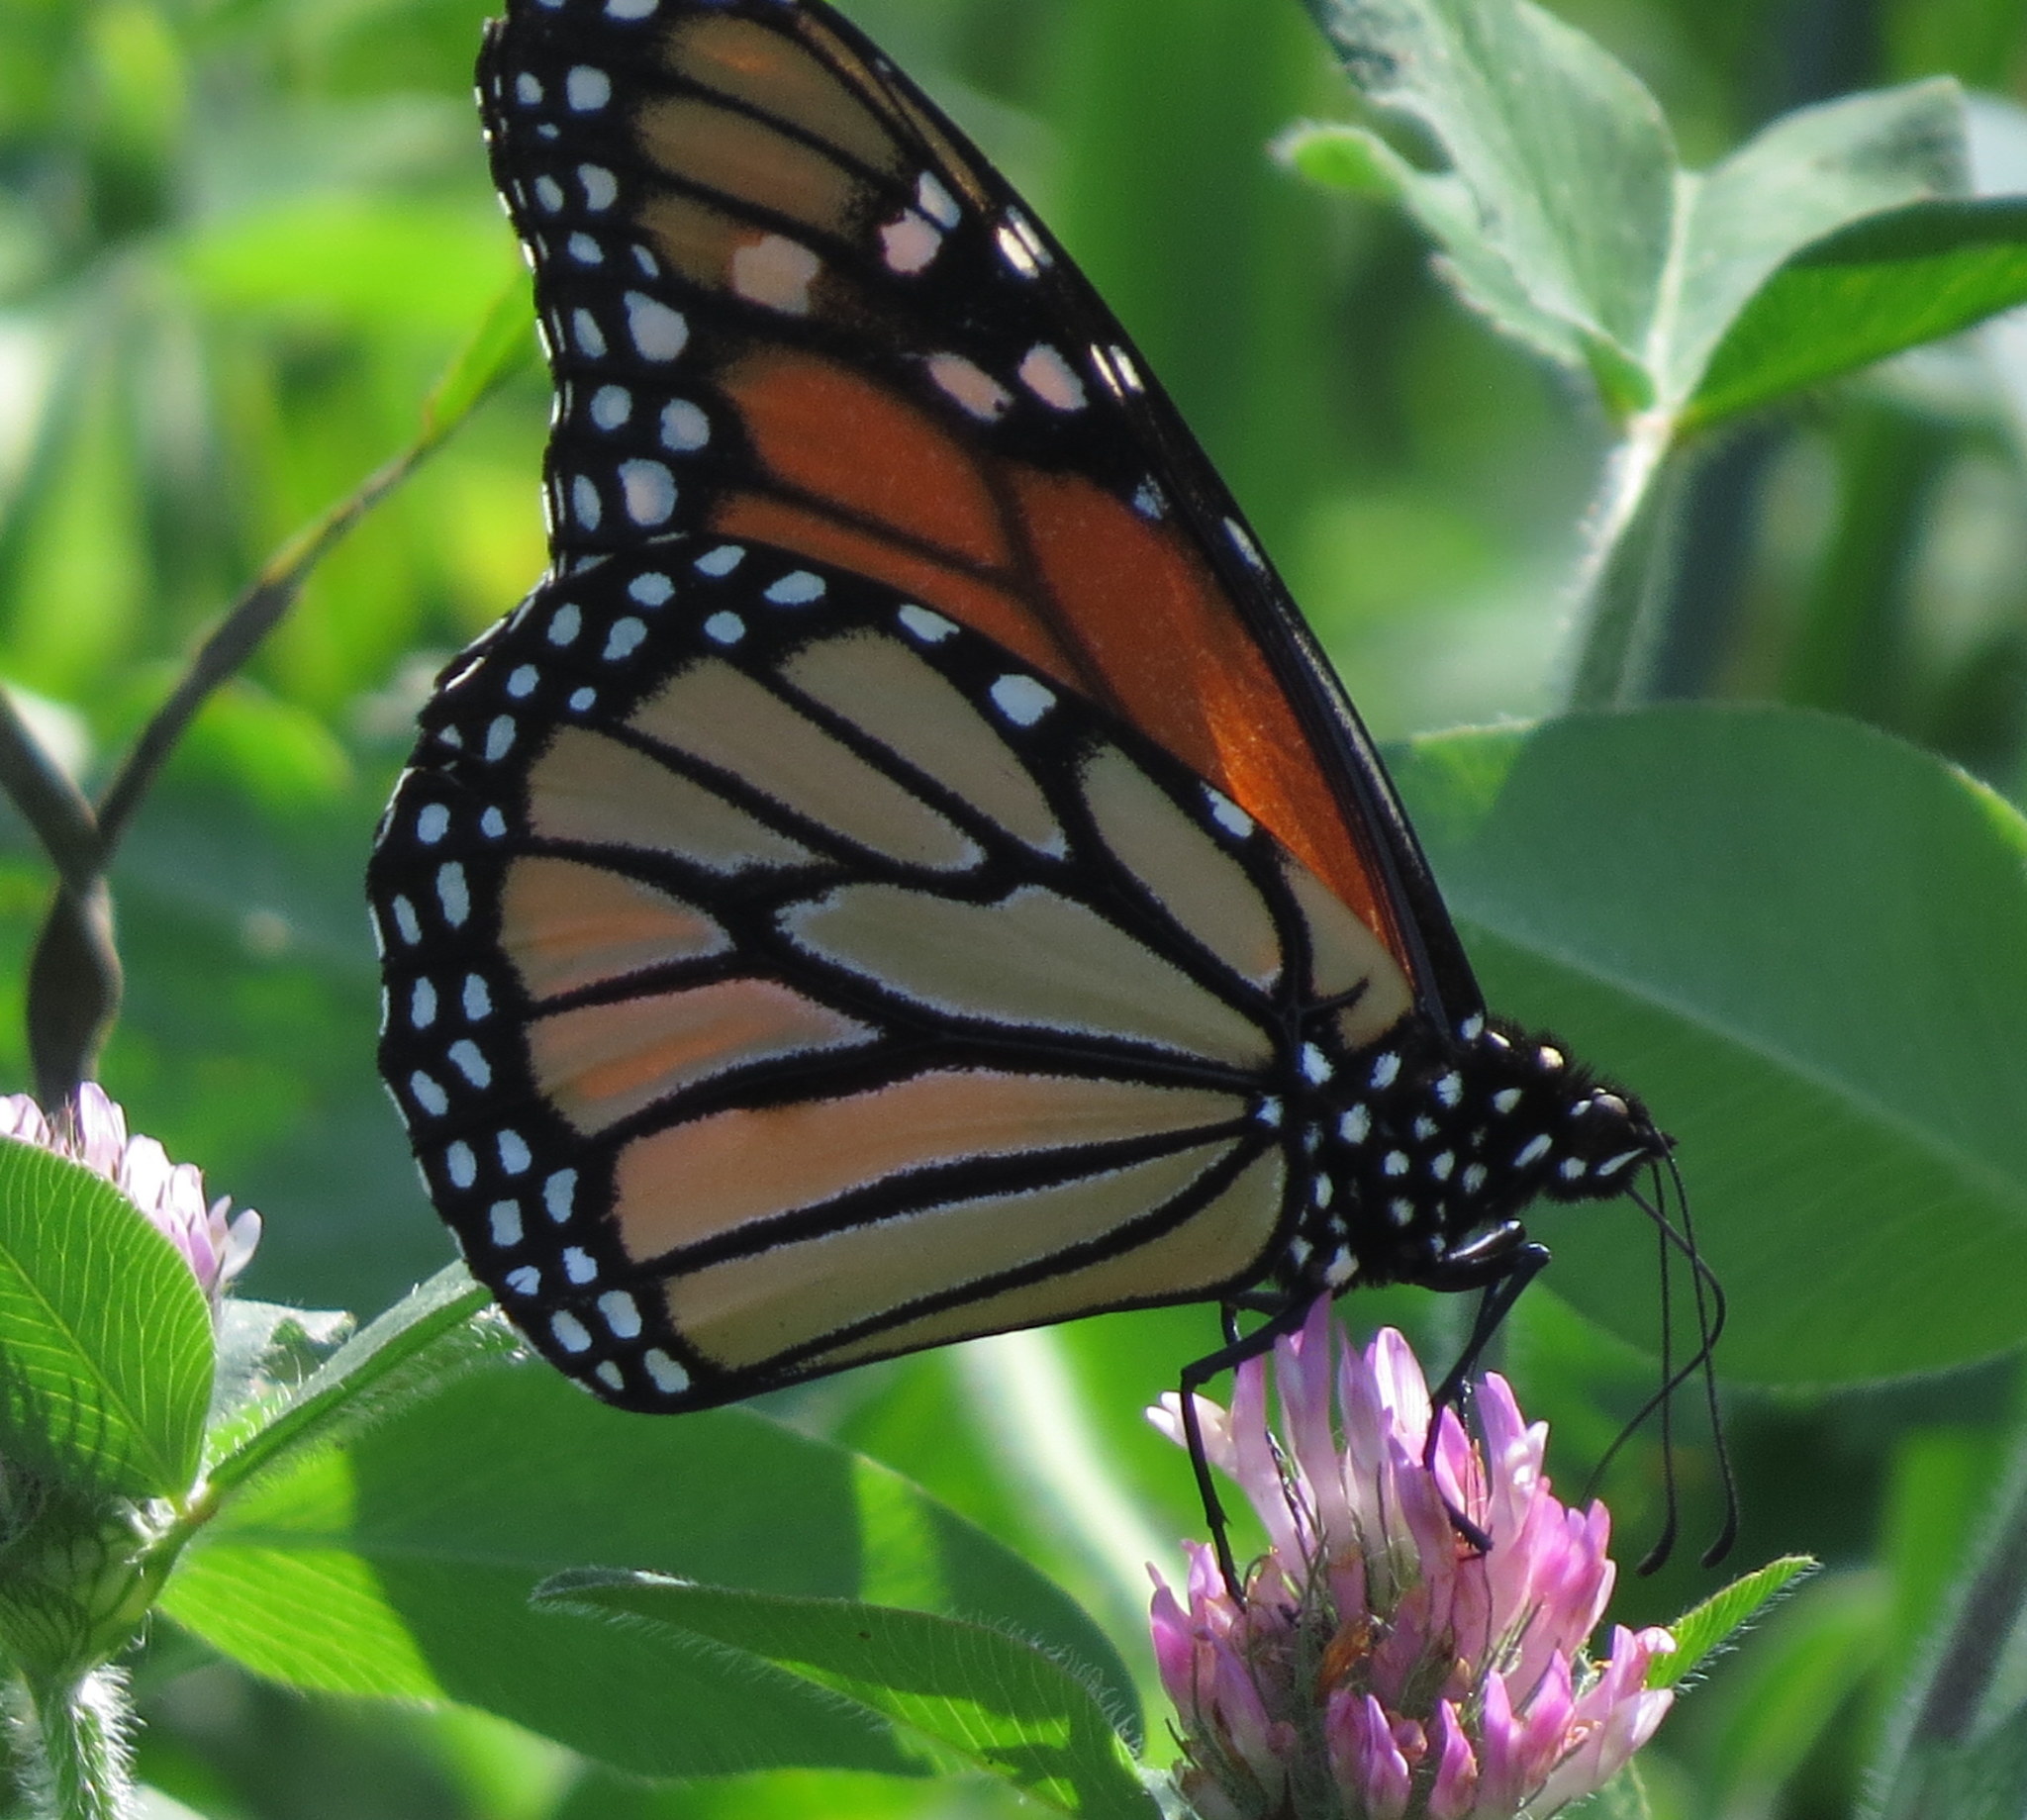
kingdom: Animalia
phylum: Arthropoda
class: Insecta
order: Lepidoptera
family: Nymphalidae
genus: Danaus
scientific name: Danaus plexippus
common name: Monarch
